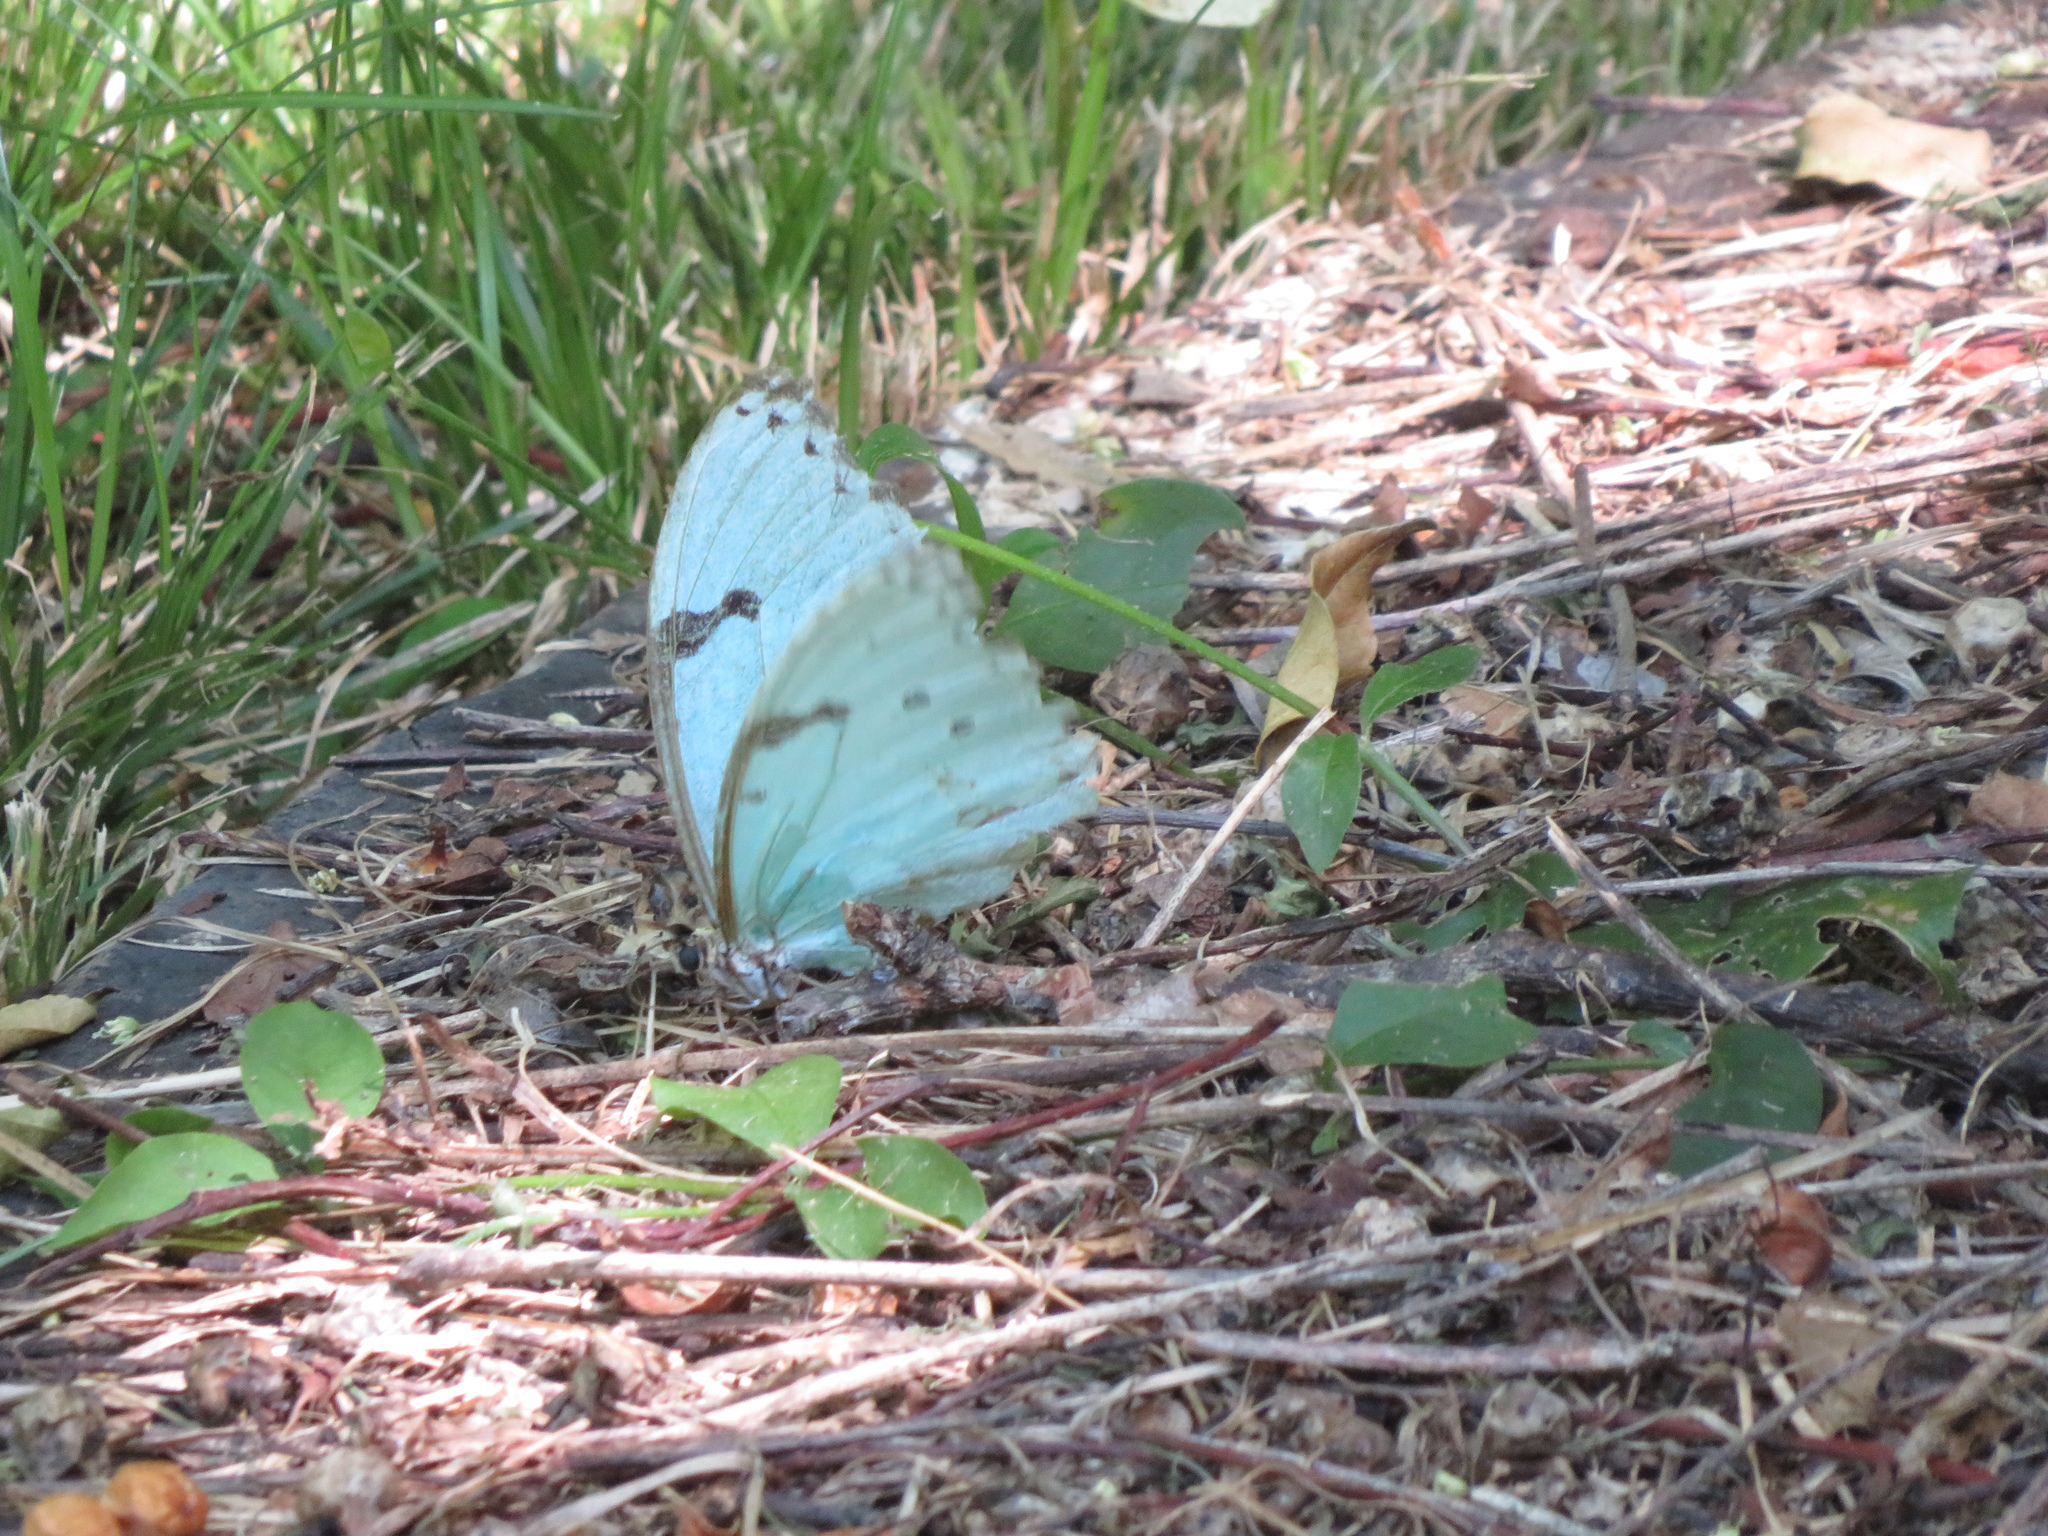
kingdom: Animalia
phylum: Arthropoda
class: Insecta
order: Lepidoptera
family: Nymphalidae
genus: Morpho
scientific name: Morpho epistrophus
